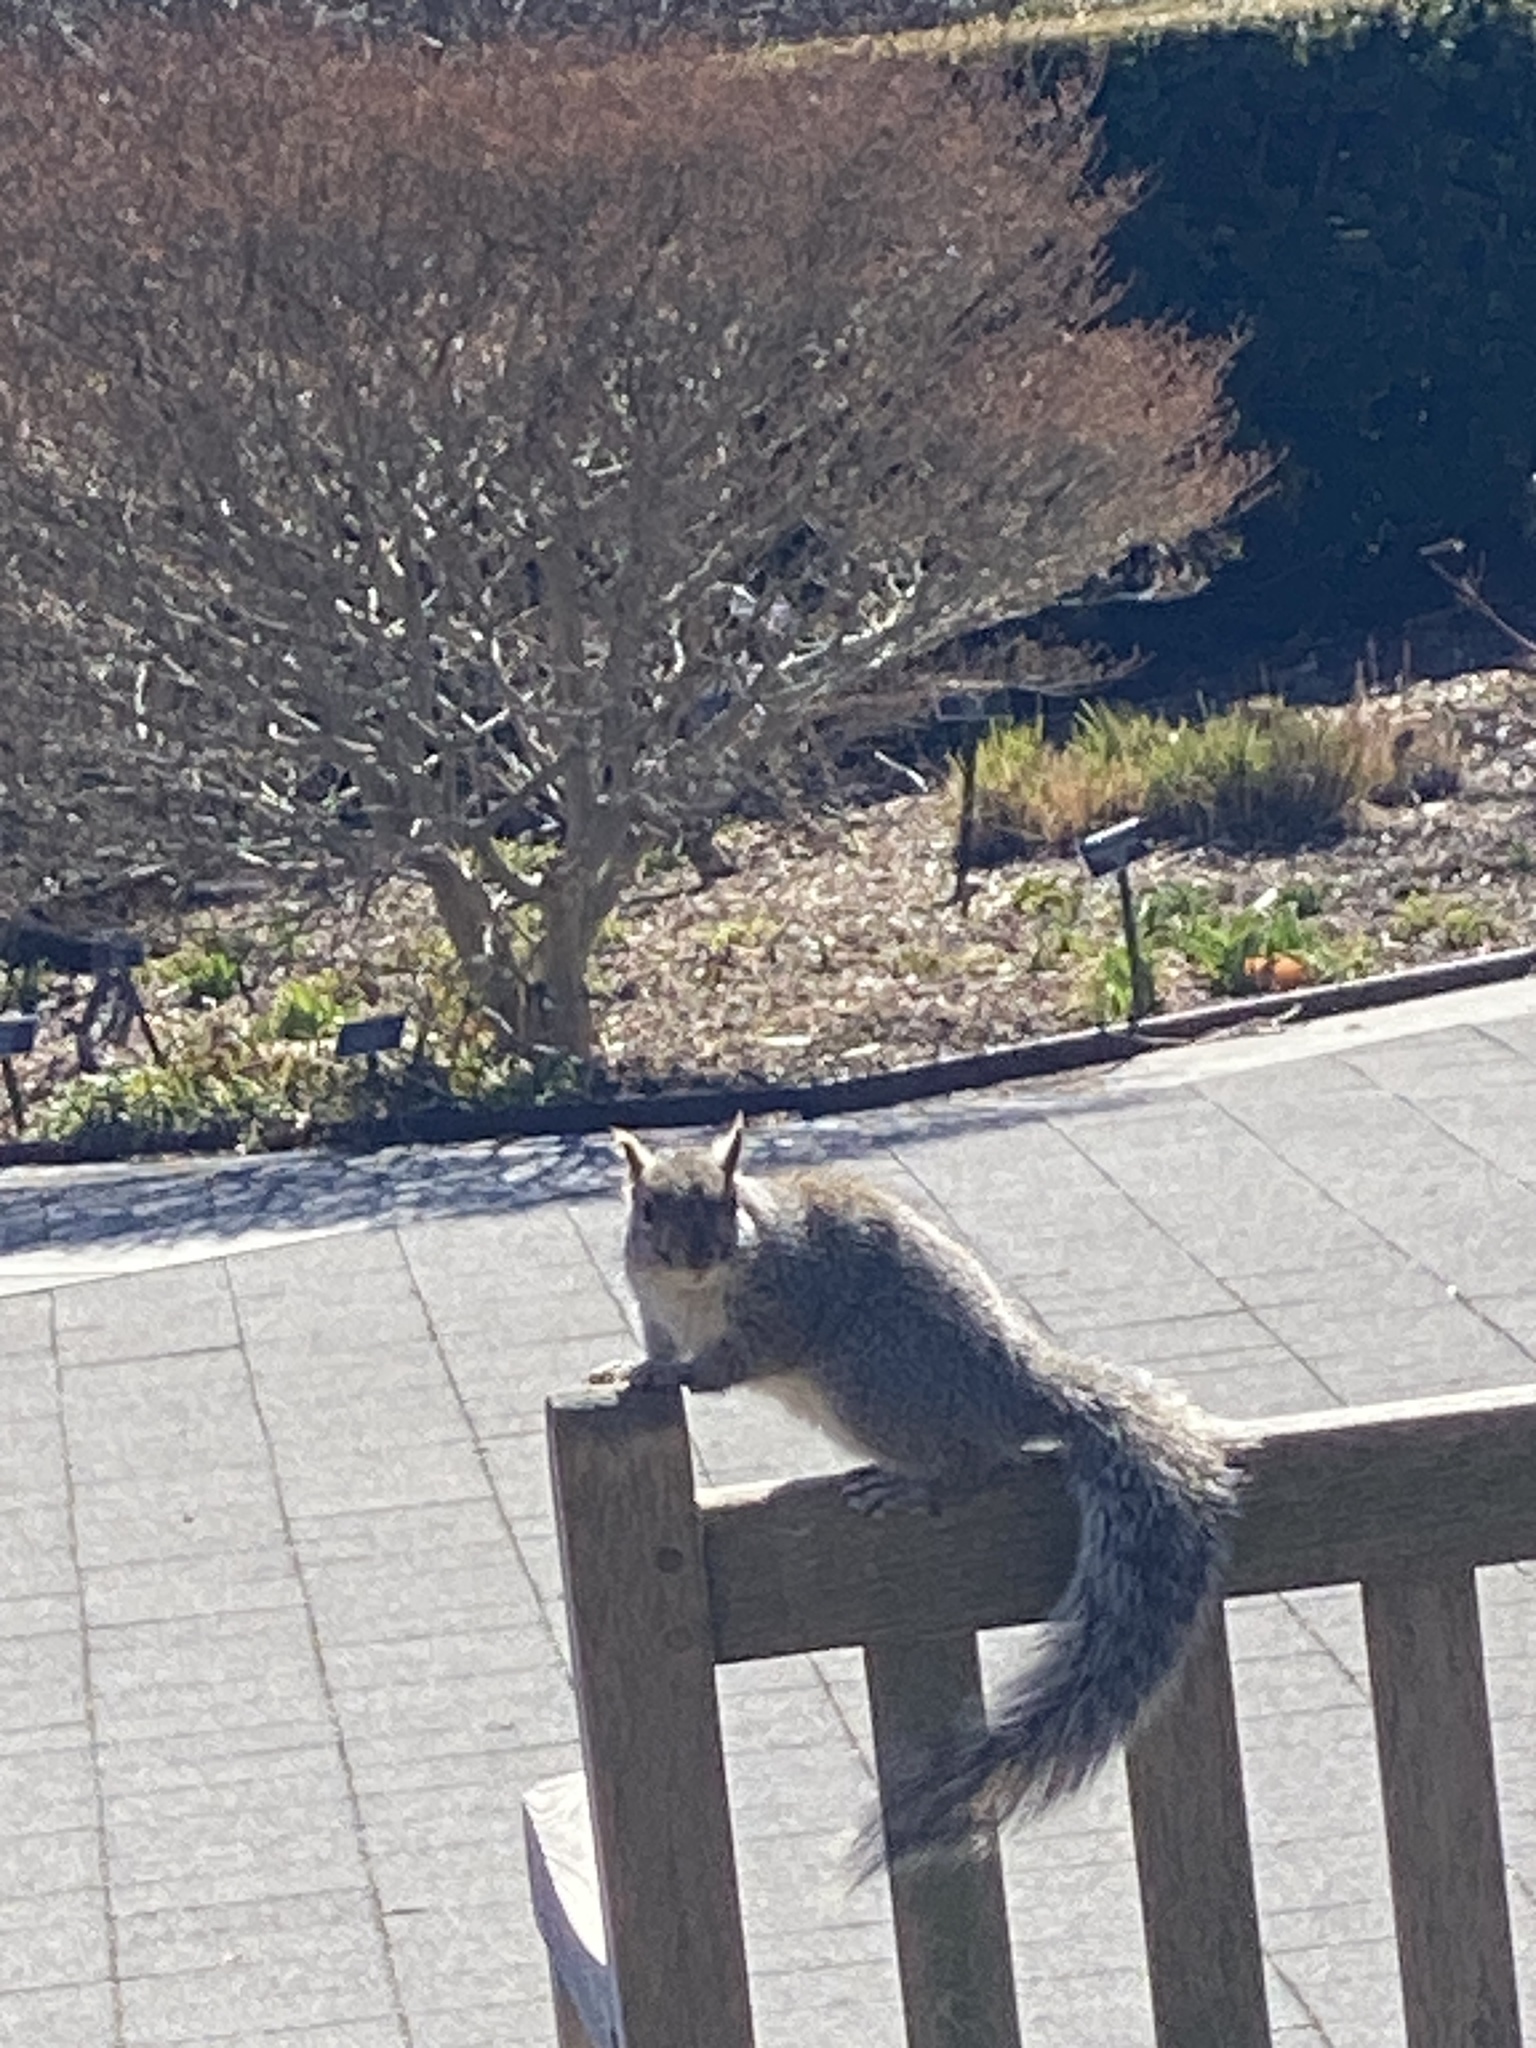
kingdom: Animalia
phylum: Chordata
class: Mammalia
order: Rodentia
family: Sciuridae
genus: Sciurus
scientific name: Sciurus carolinensis
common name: Eastern gray squirrel
